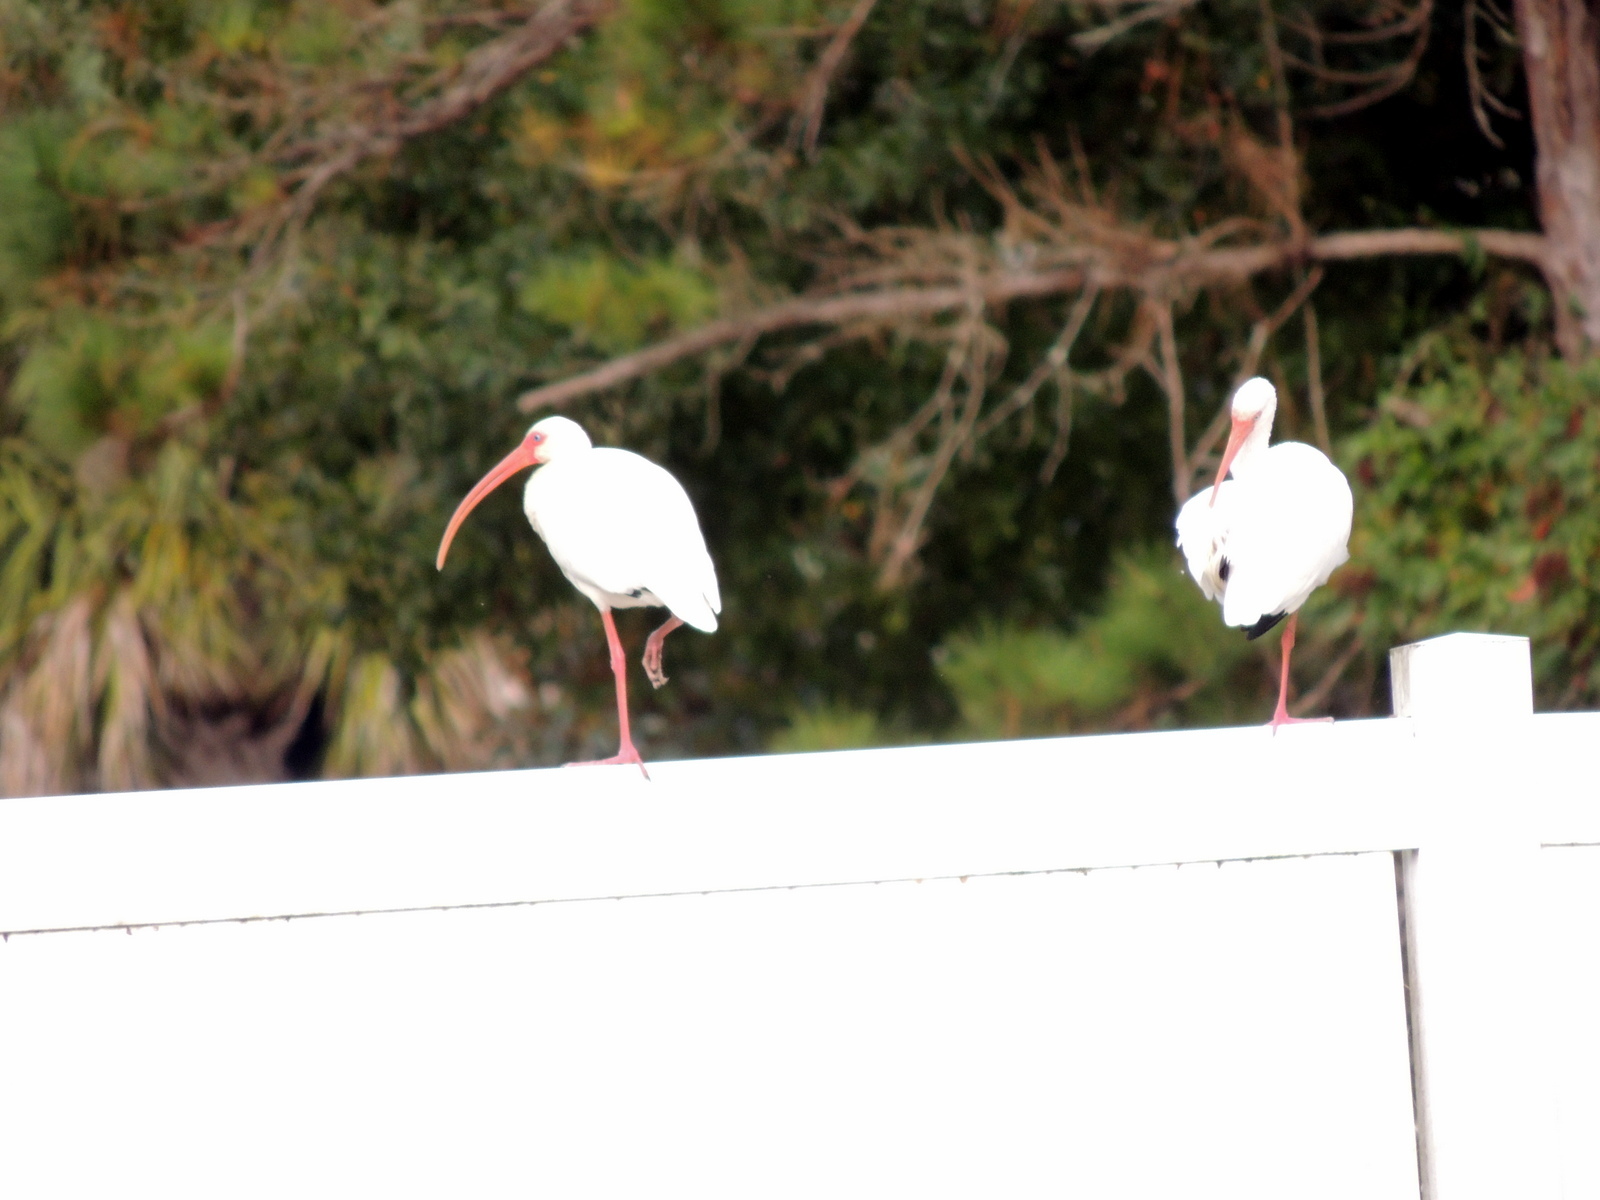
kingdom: Animalia
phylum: Chordata
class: Aves
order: Pelecaniformes
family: Threskiornithidae
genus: Eudocimus
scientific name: Eudocimus albus
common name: White ibis
